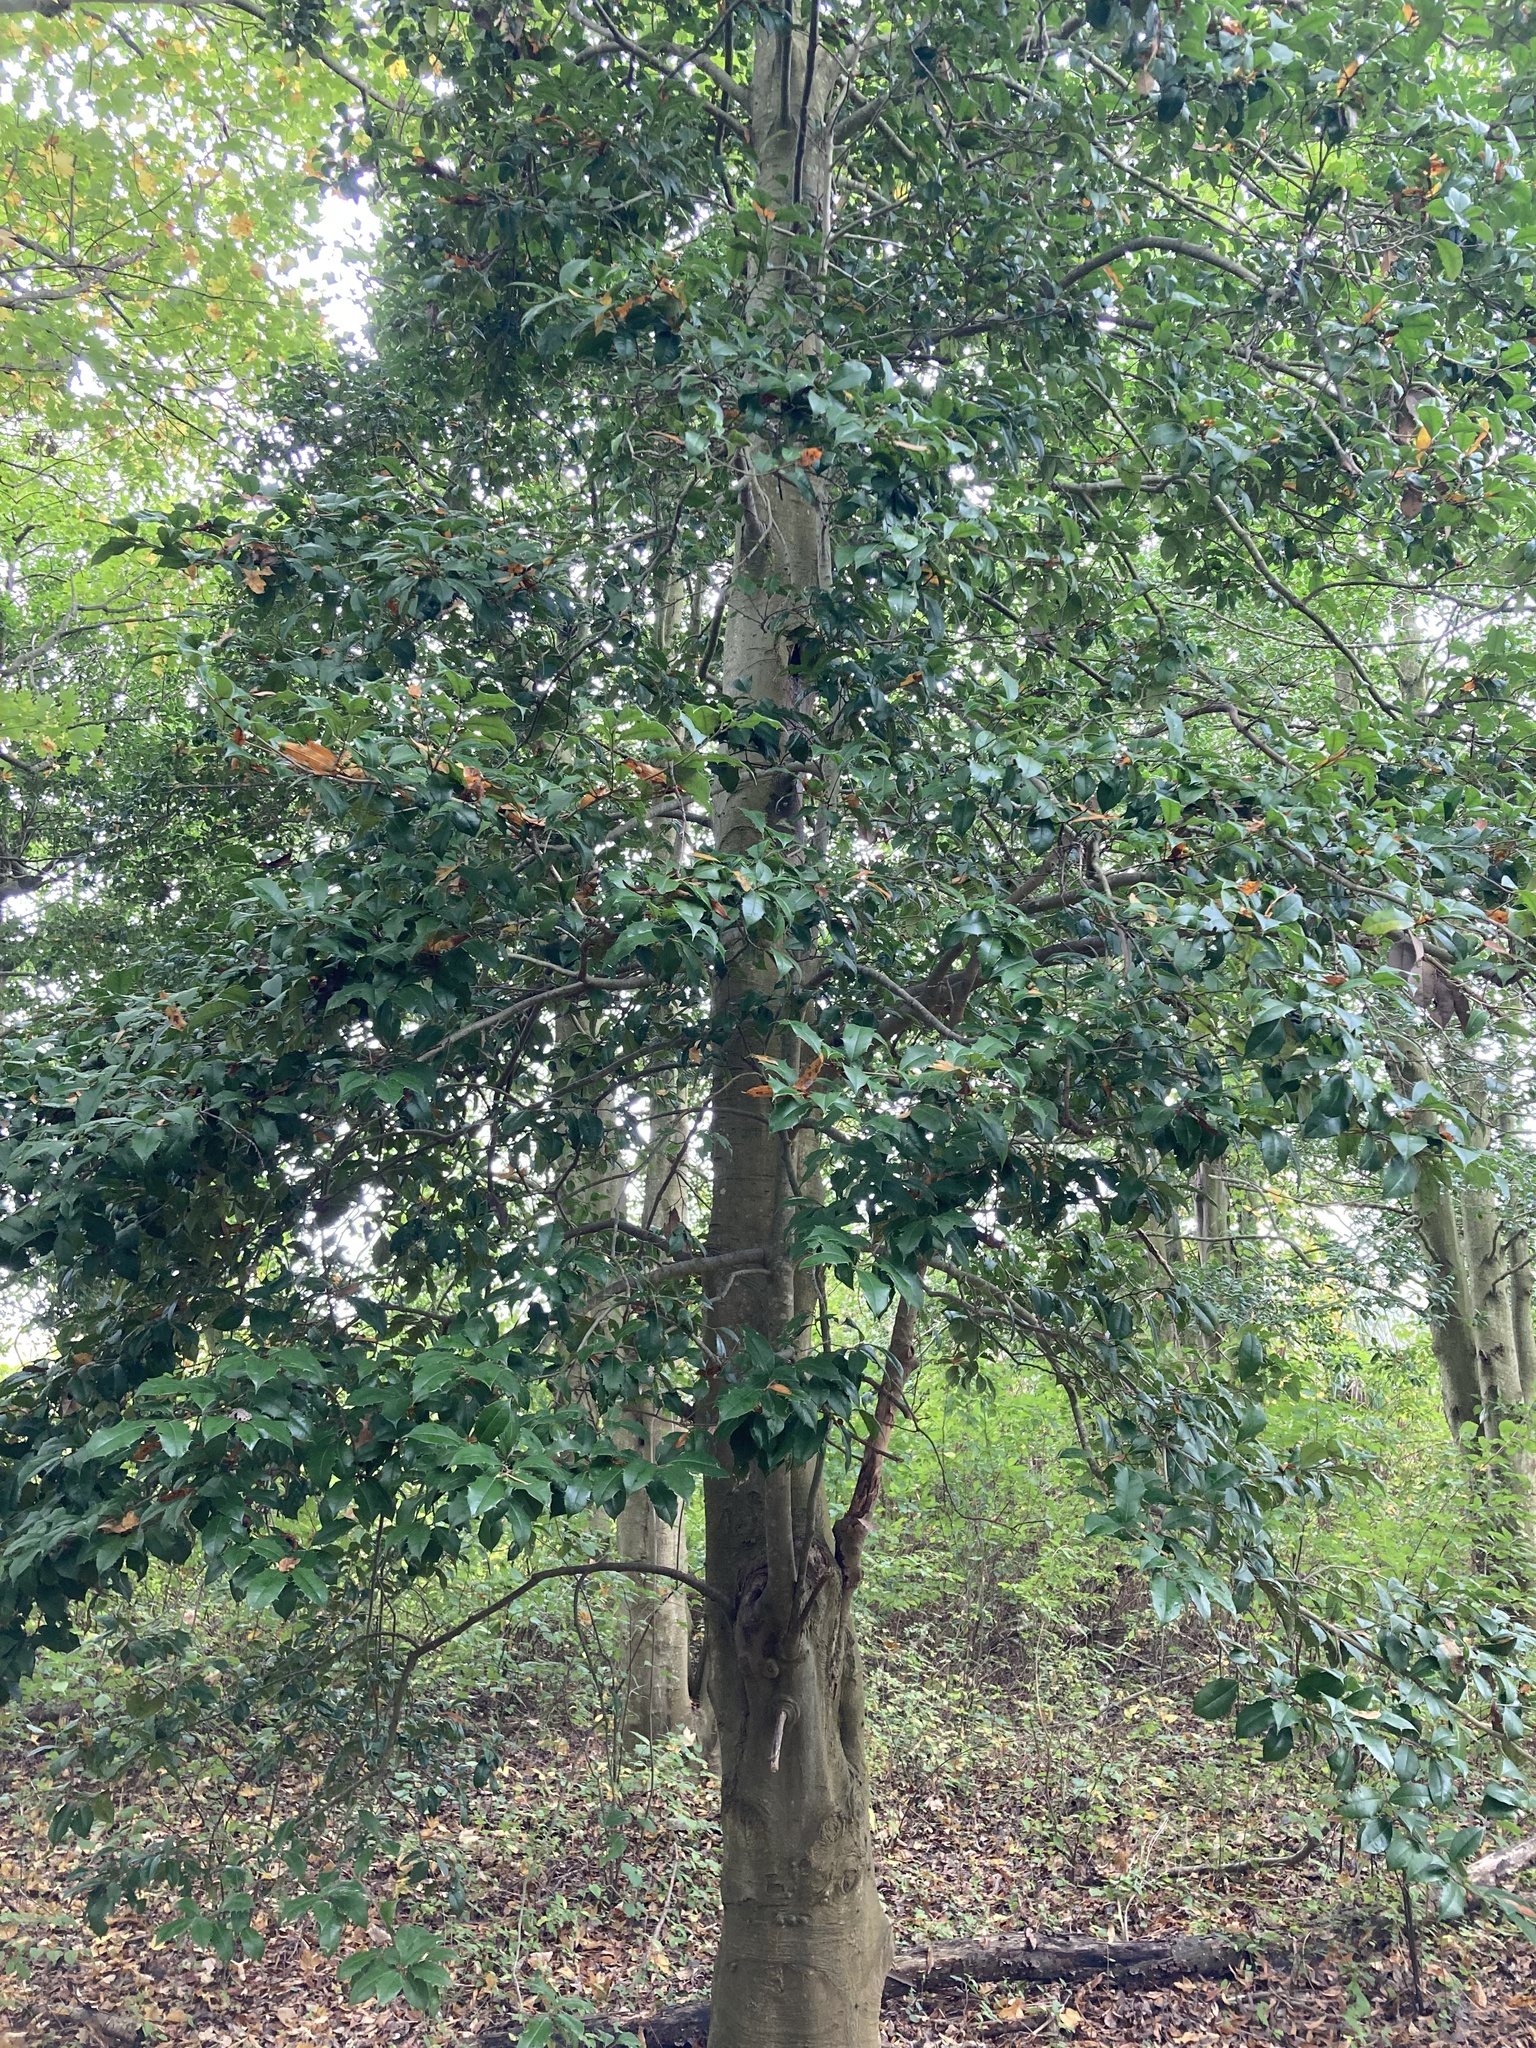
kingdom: Plantae
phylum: Tracheophyta
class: Magnoliopsida
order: Aquifoliales
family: Aquifoliaceae
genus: Ilex
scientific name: Ilex opaca
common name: American holly
